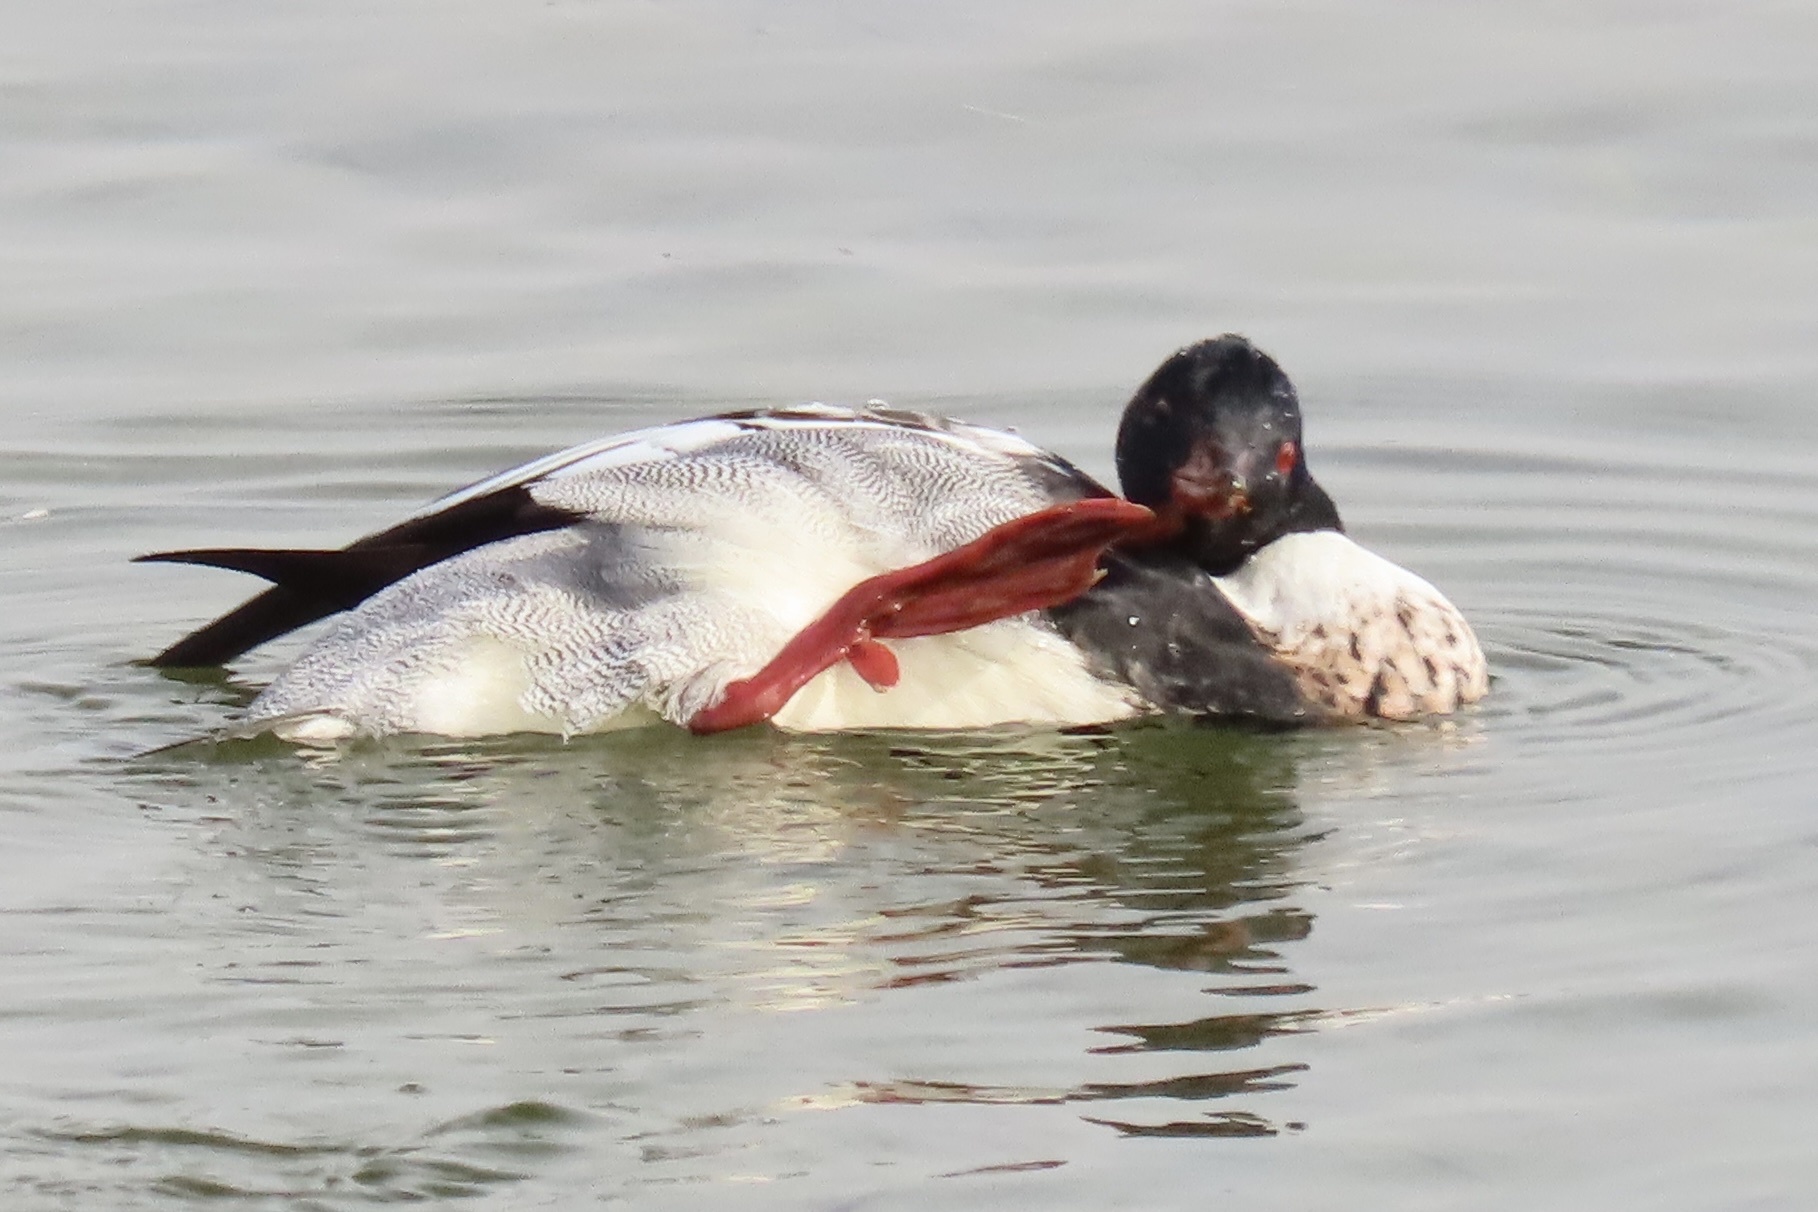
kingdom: Animalia
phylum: Chordata
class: Aves
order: Anseriformes
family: Anatidae
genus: Mergus
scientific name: Mergus serrator
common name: Red-breasted merganser
